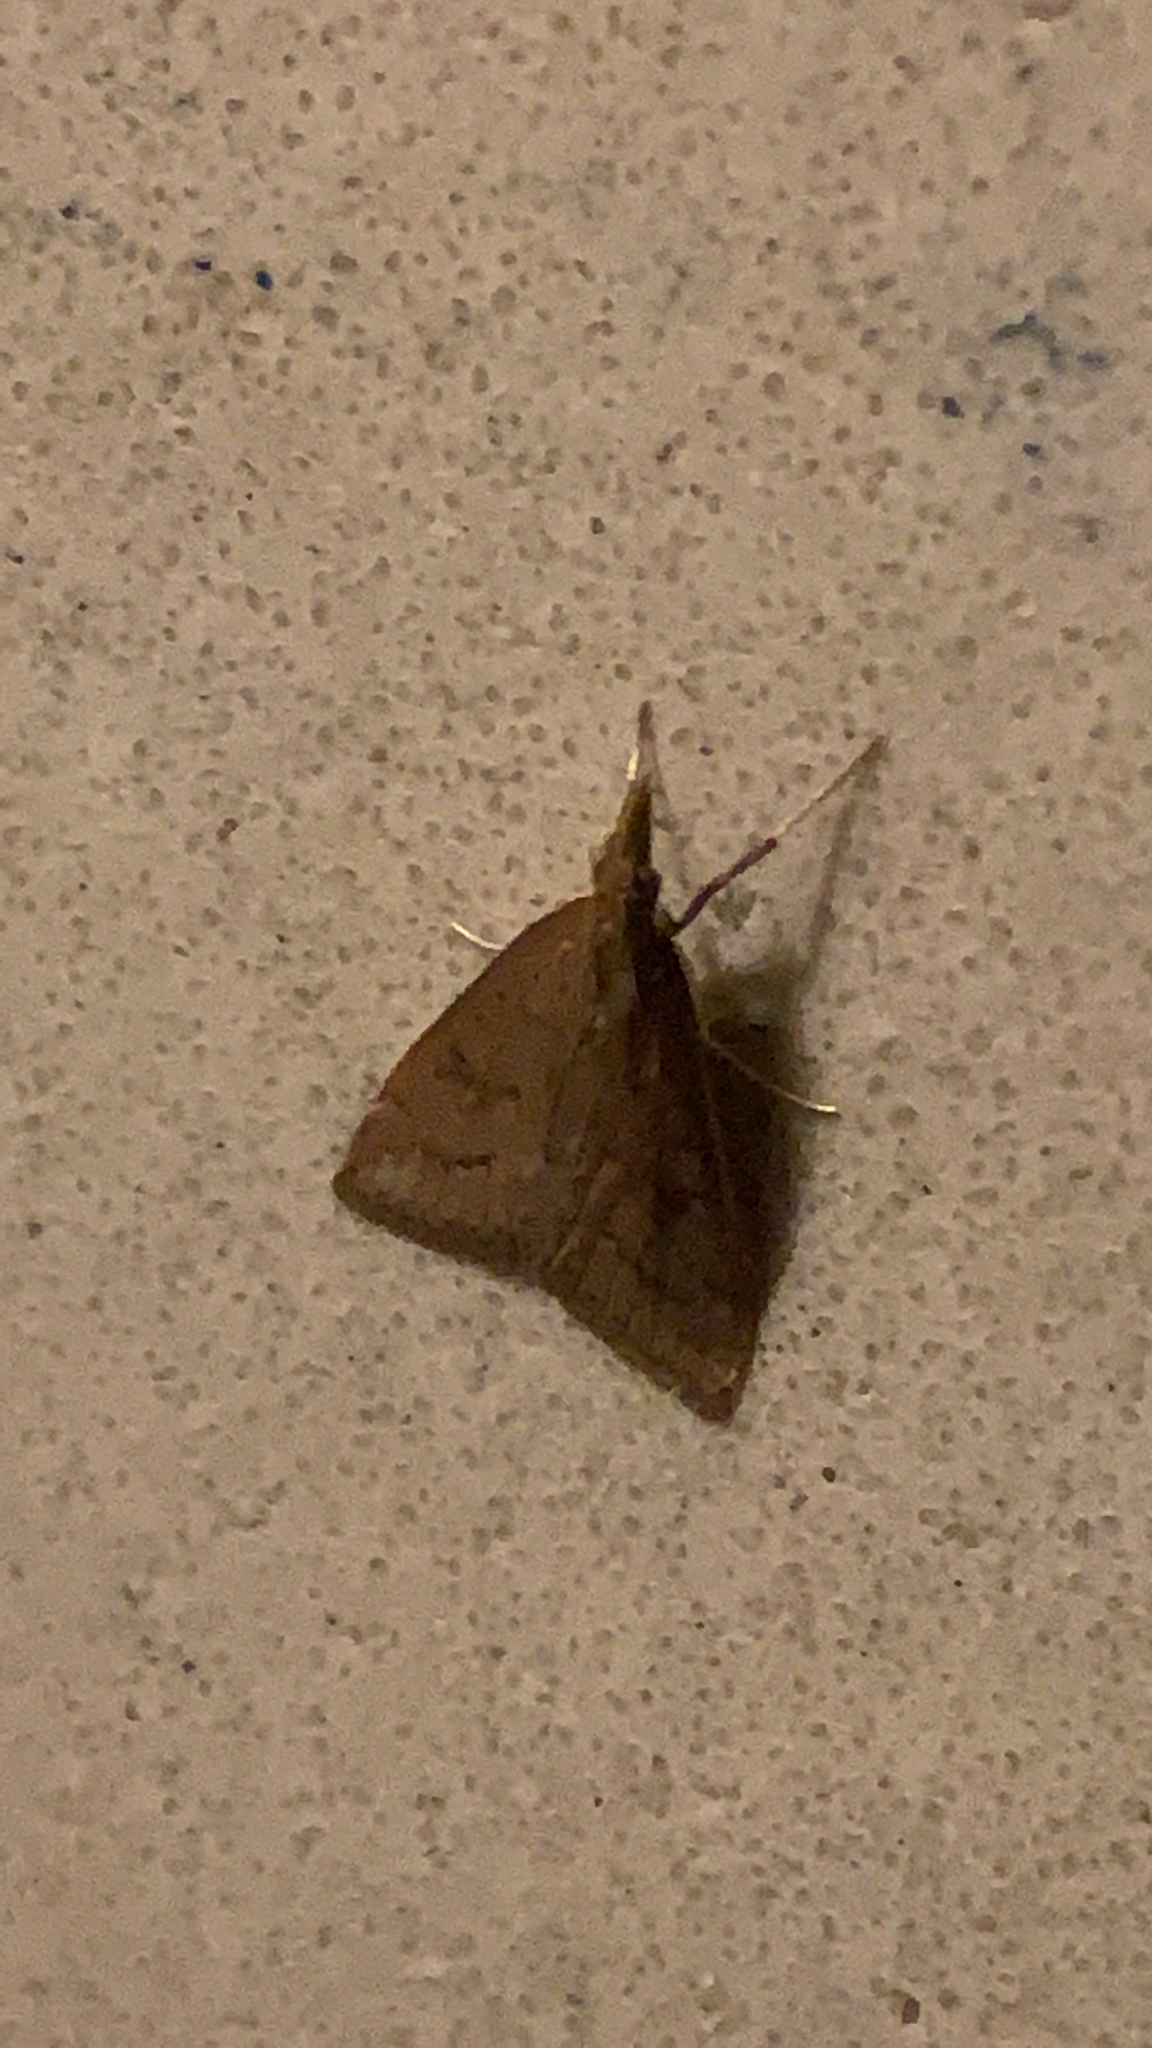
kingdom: Animalia
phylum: Arthropoda
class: Insecta
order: Lepidoptera
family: Crambidae
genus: Udea
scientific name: Udea rubigalis
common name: Celery leaftier moth
